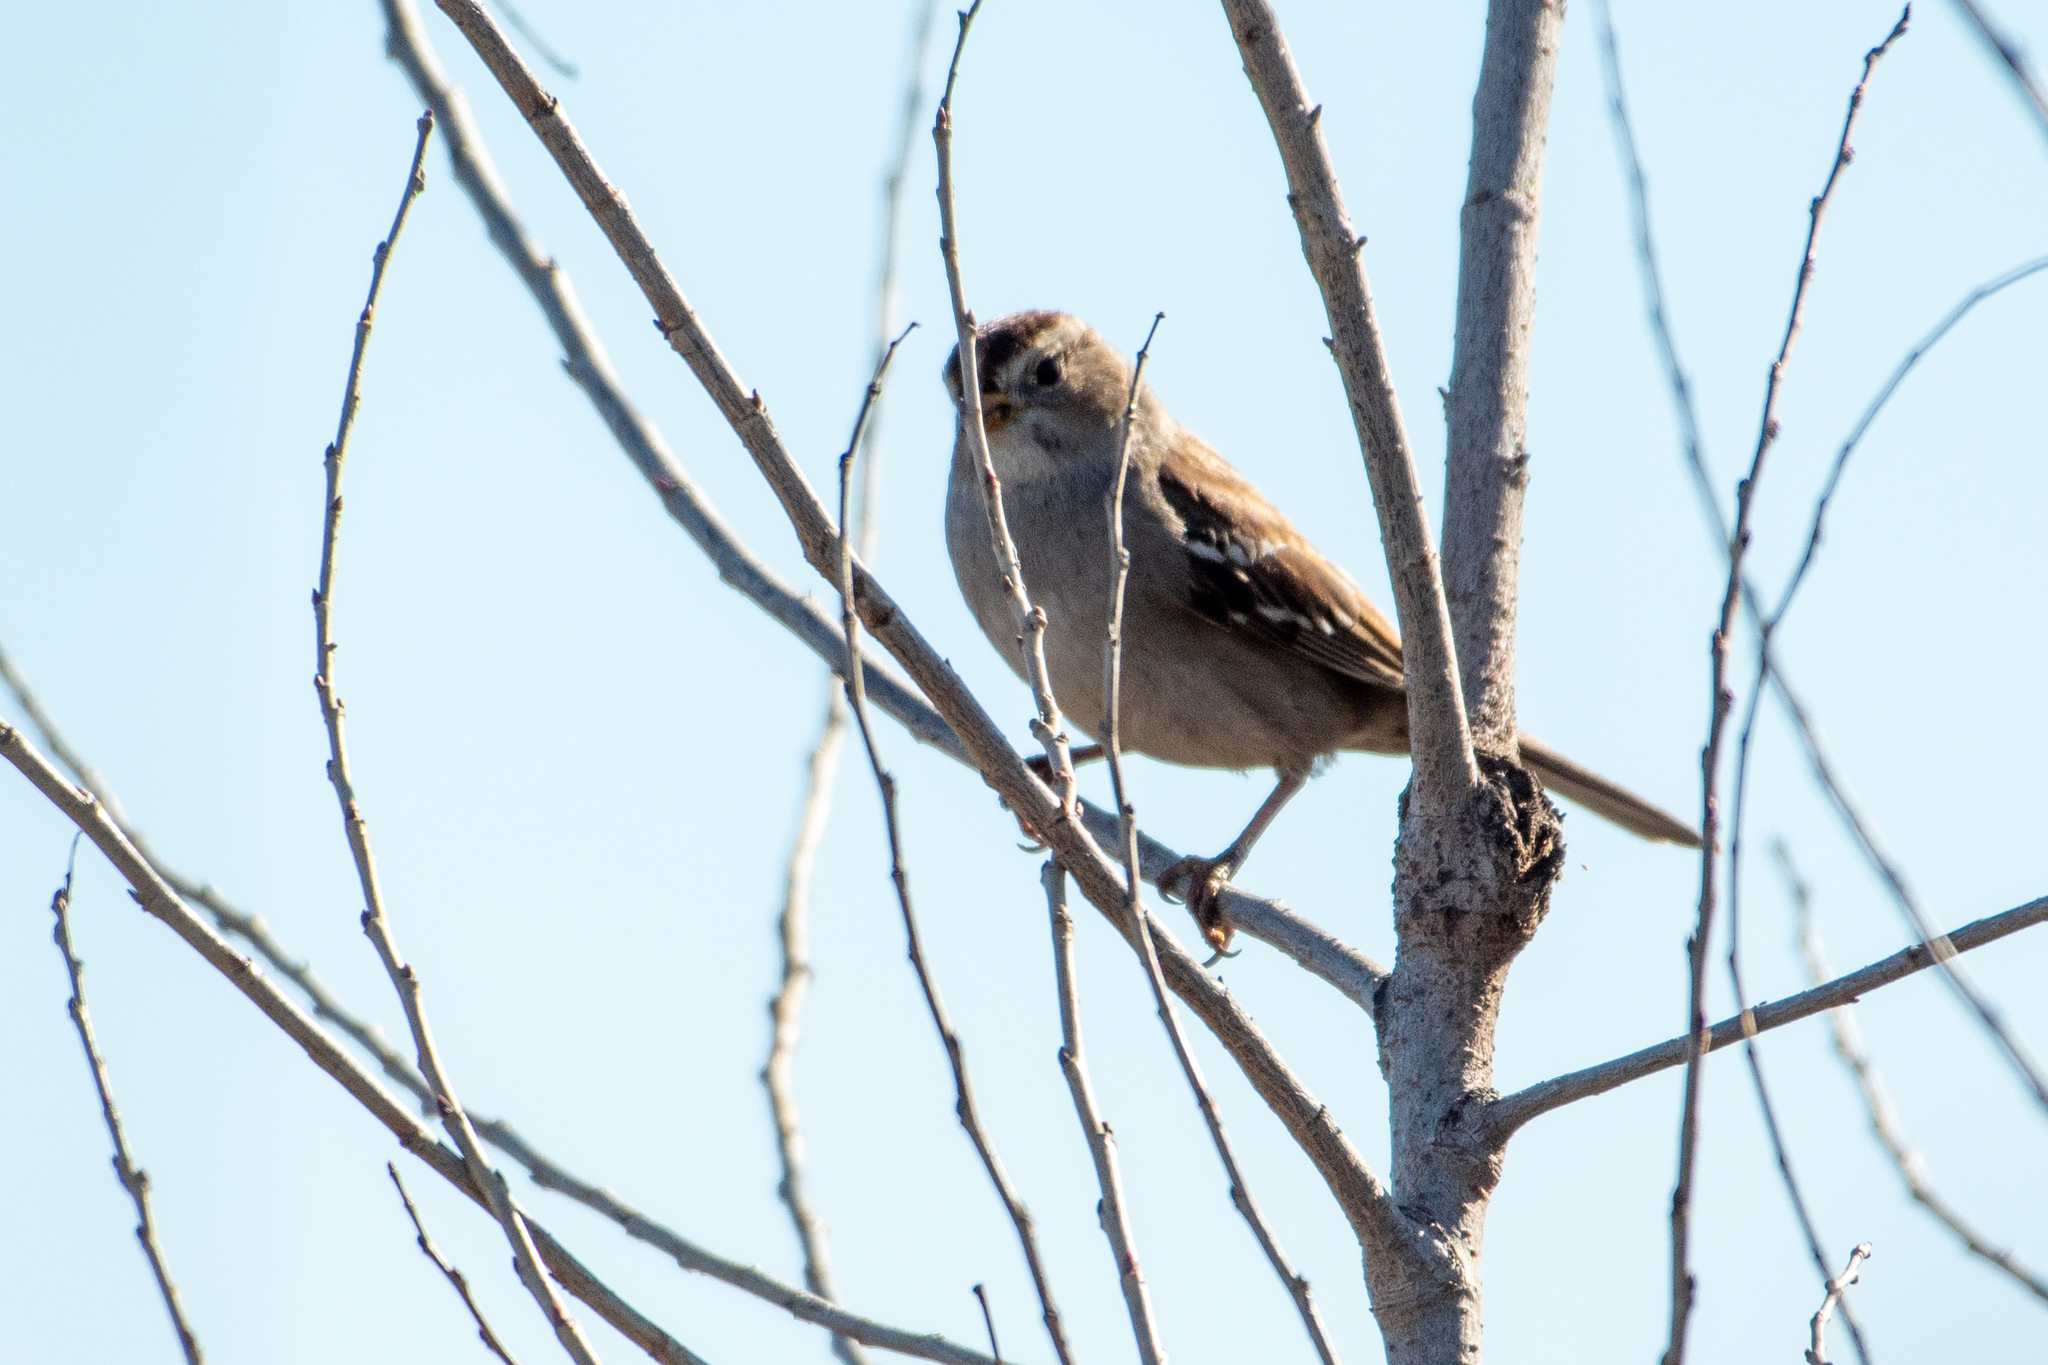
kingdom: Animalia
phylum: Chordata
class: Aves
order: Passeriformes
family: Passerellidae
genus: Zonotrichia
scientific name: Zonotrichia leucophrys
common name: White-crowned sparrow
